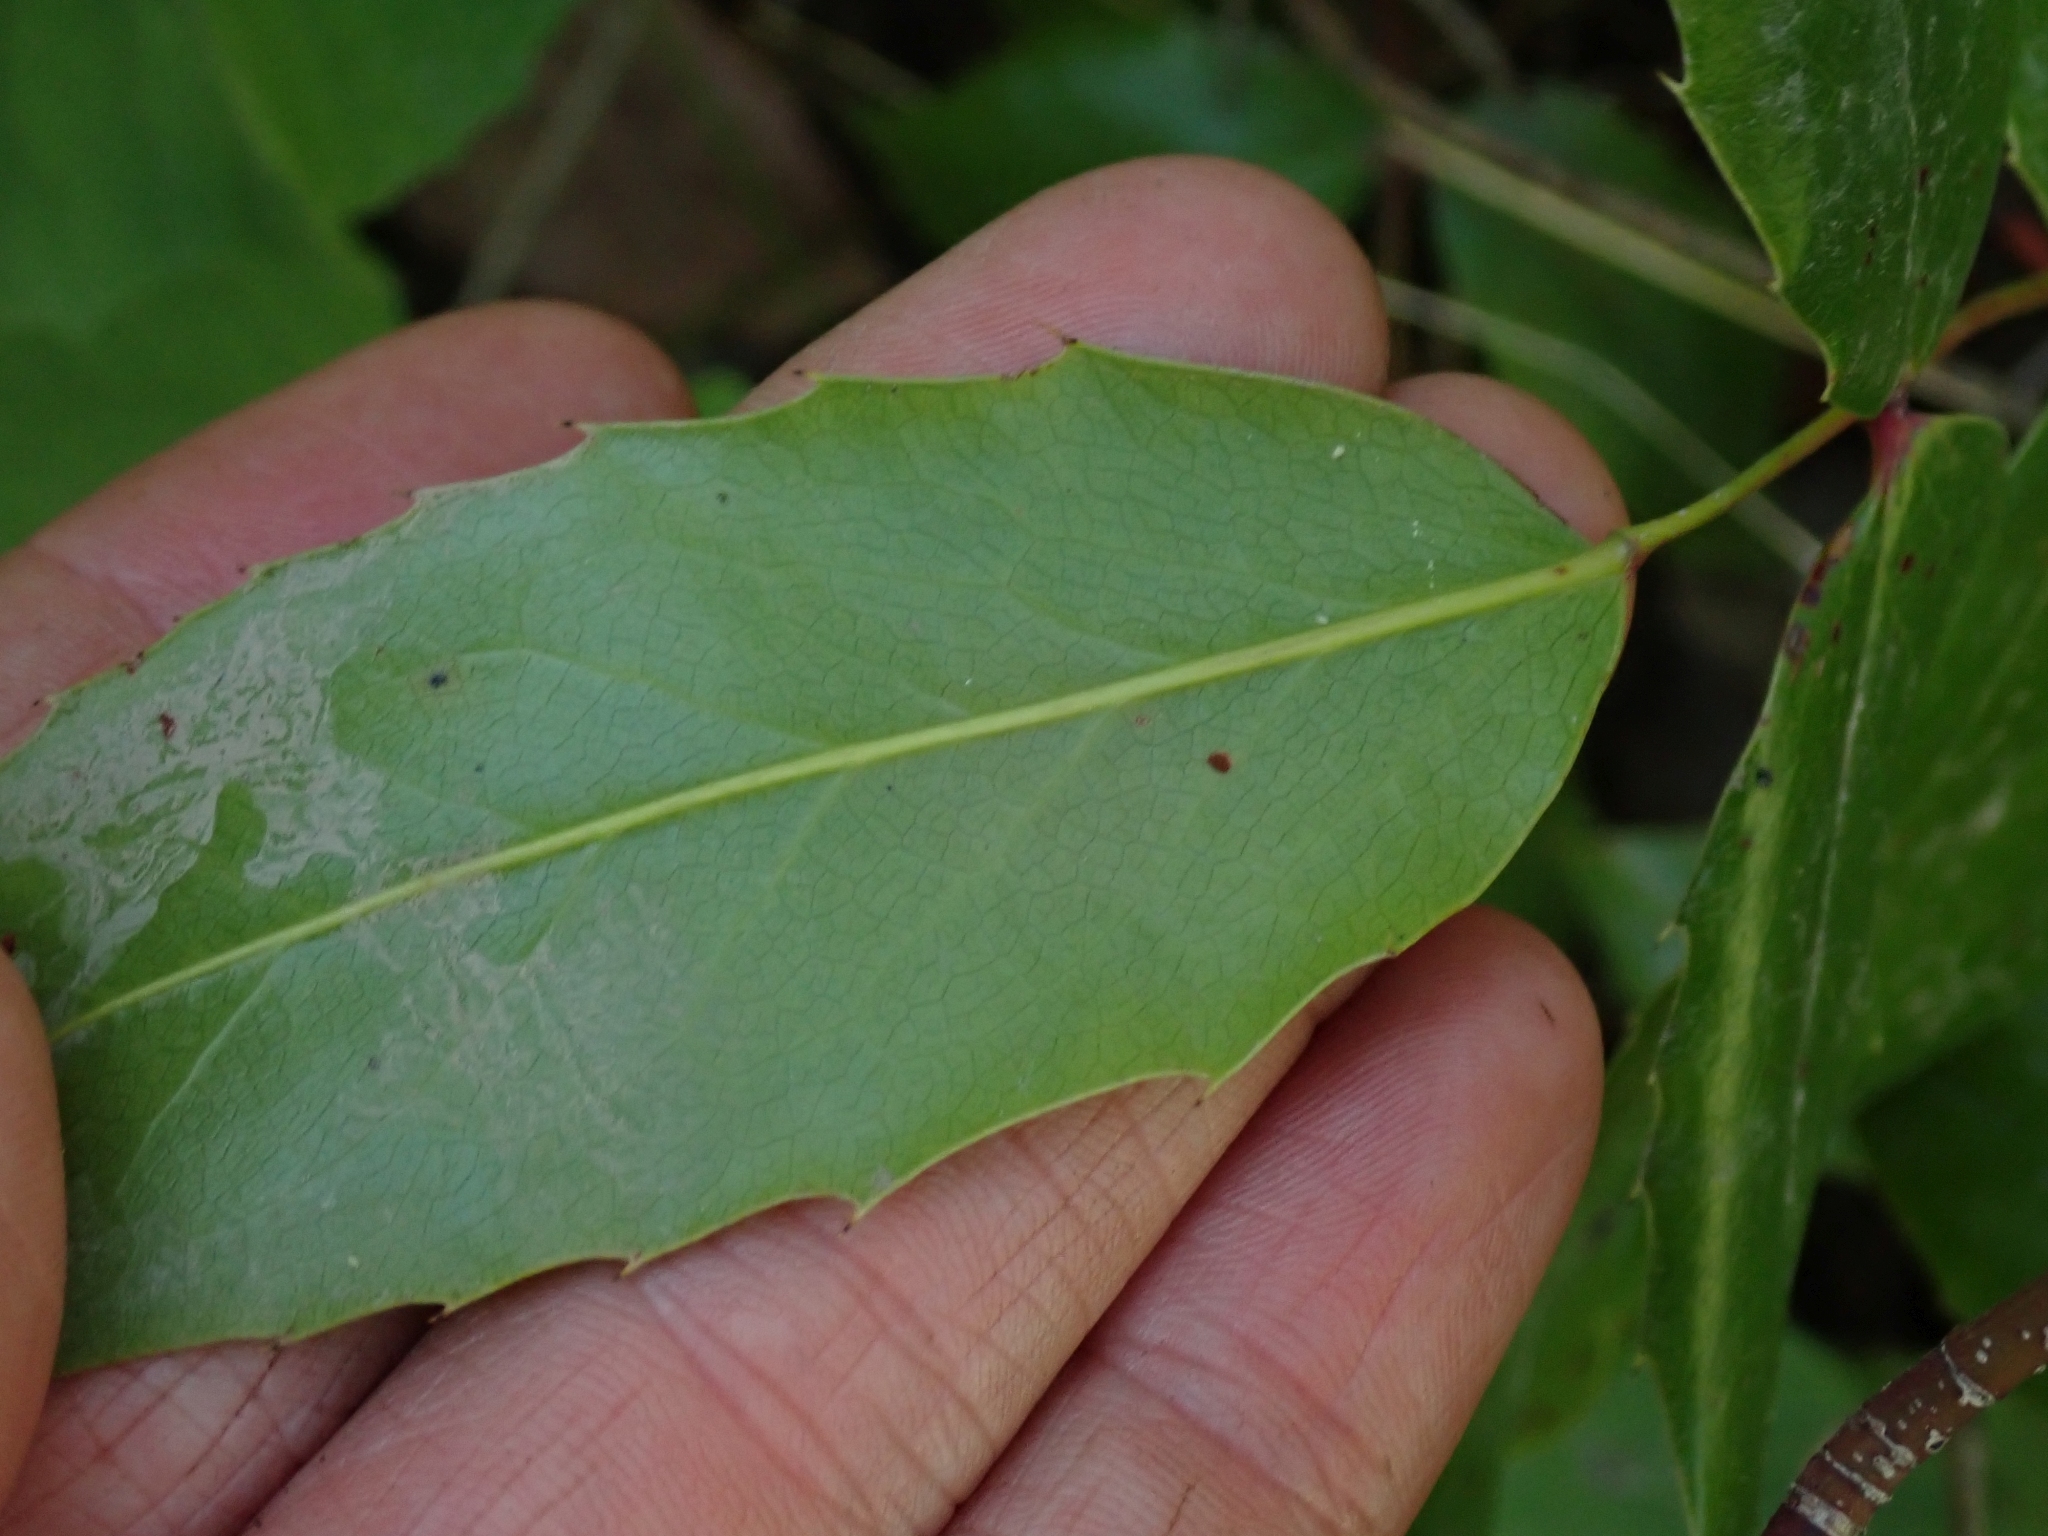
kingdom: Plantae
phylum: Tracheophyta
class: Magnoliopsida
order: Ranunculales
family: Berberidaceae
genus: Mahonia
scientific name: Mahonia aquifolium
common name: Oregon-grape
